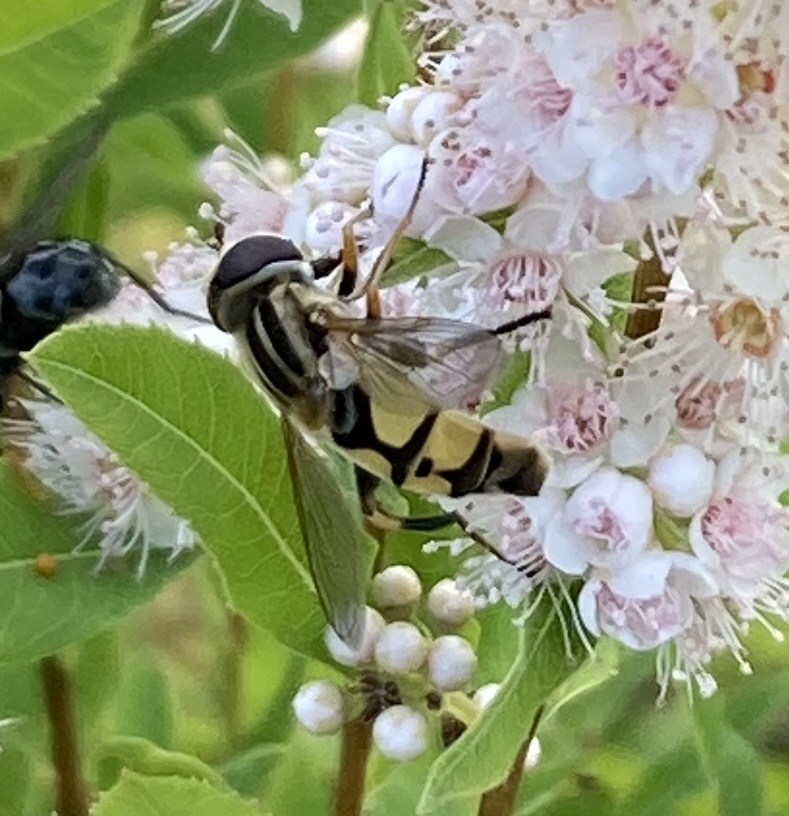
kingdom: Animalia
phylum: Arthropoda
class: Insecta
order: Diptera
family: Syrphidae
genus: Helophilus
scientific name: Helophilus latifrons
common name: Broad-headed marsh fly
